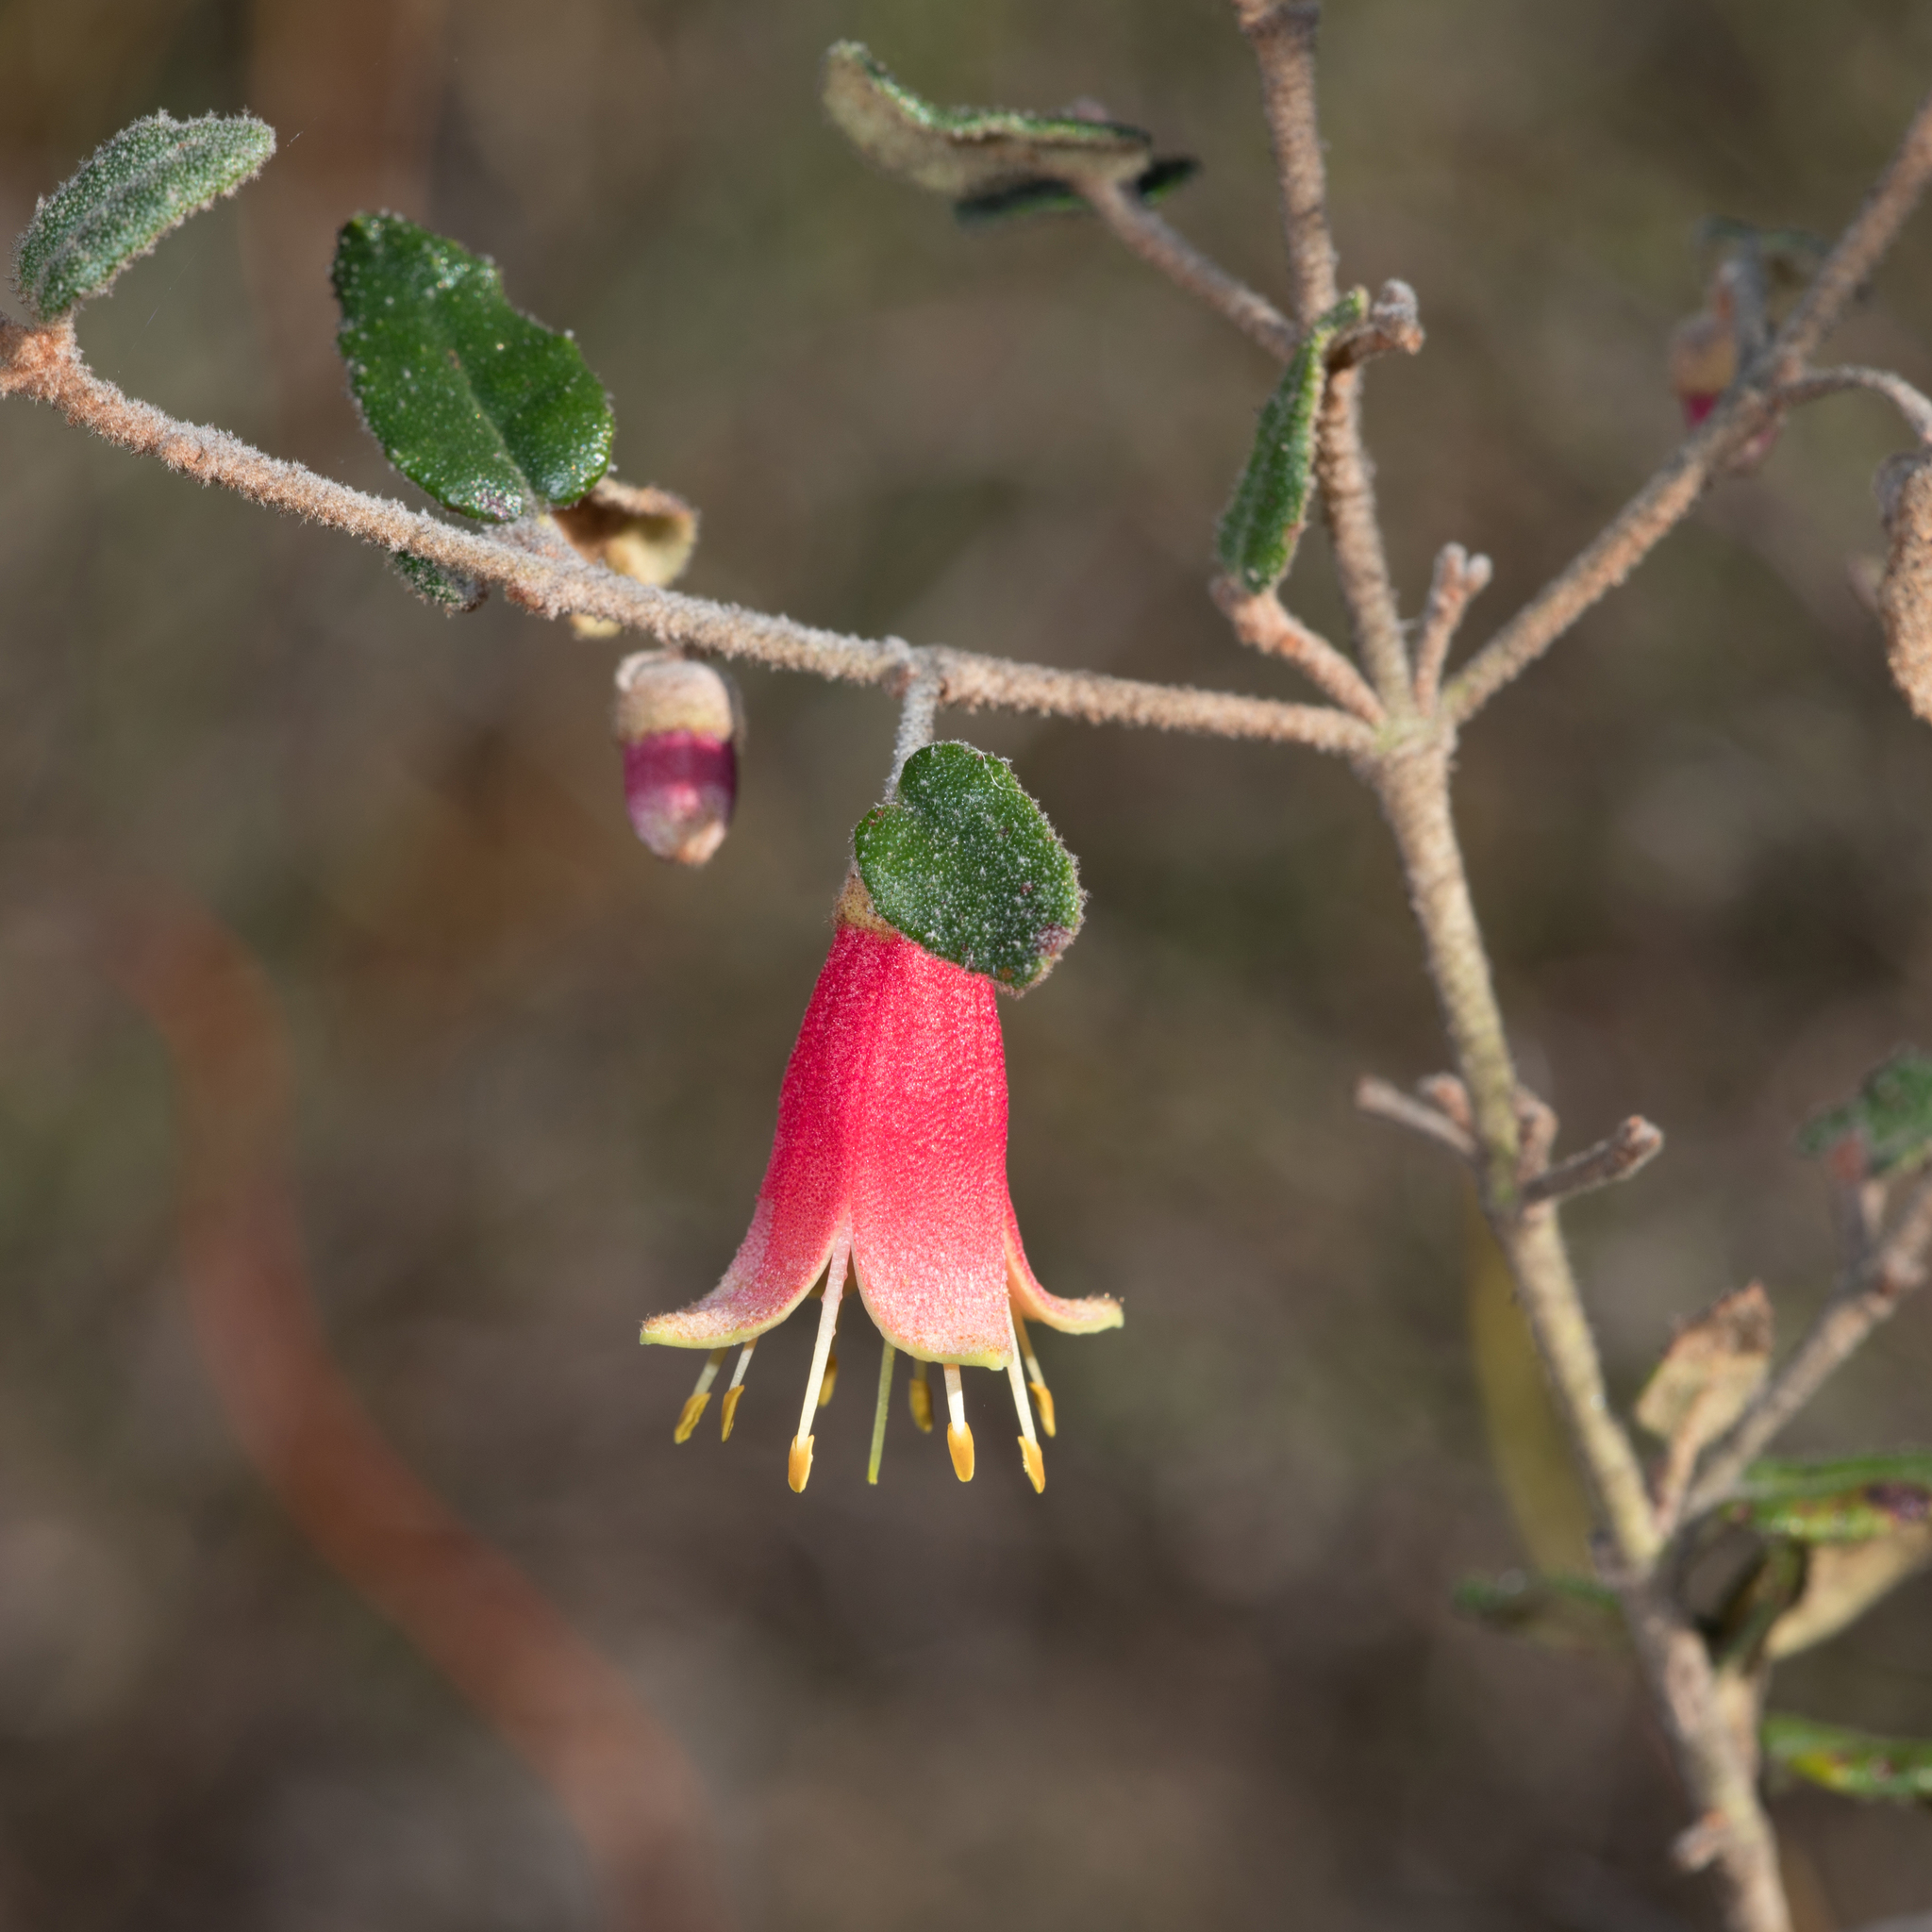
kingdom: Plantae
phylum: Tracheophyta
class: Magnoliopsida
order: Sapindales
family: Rutaceae
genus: Correa
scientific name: Correa reflexa
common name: Common correa
